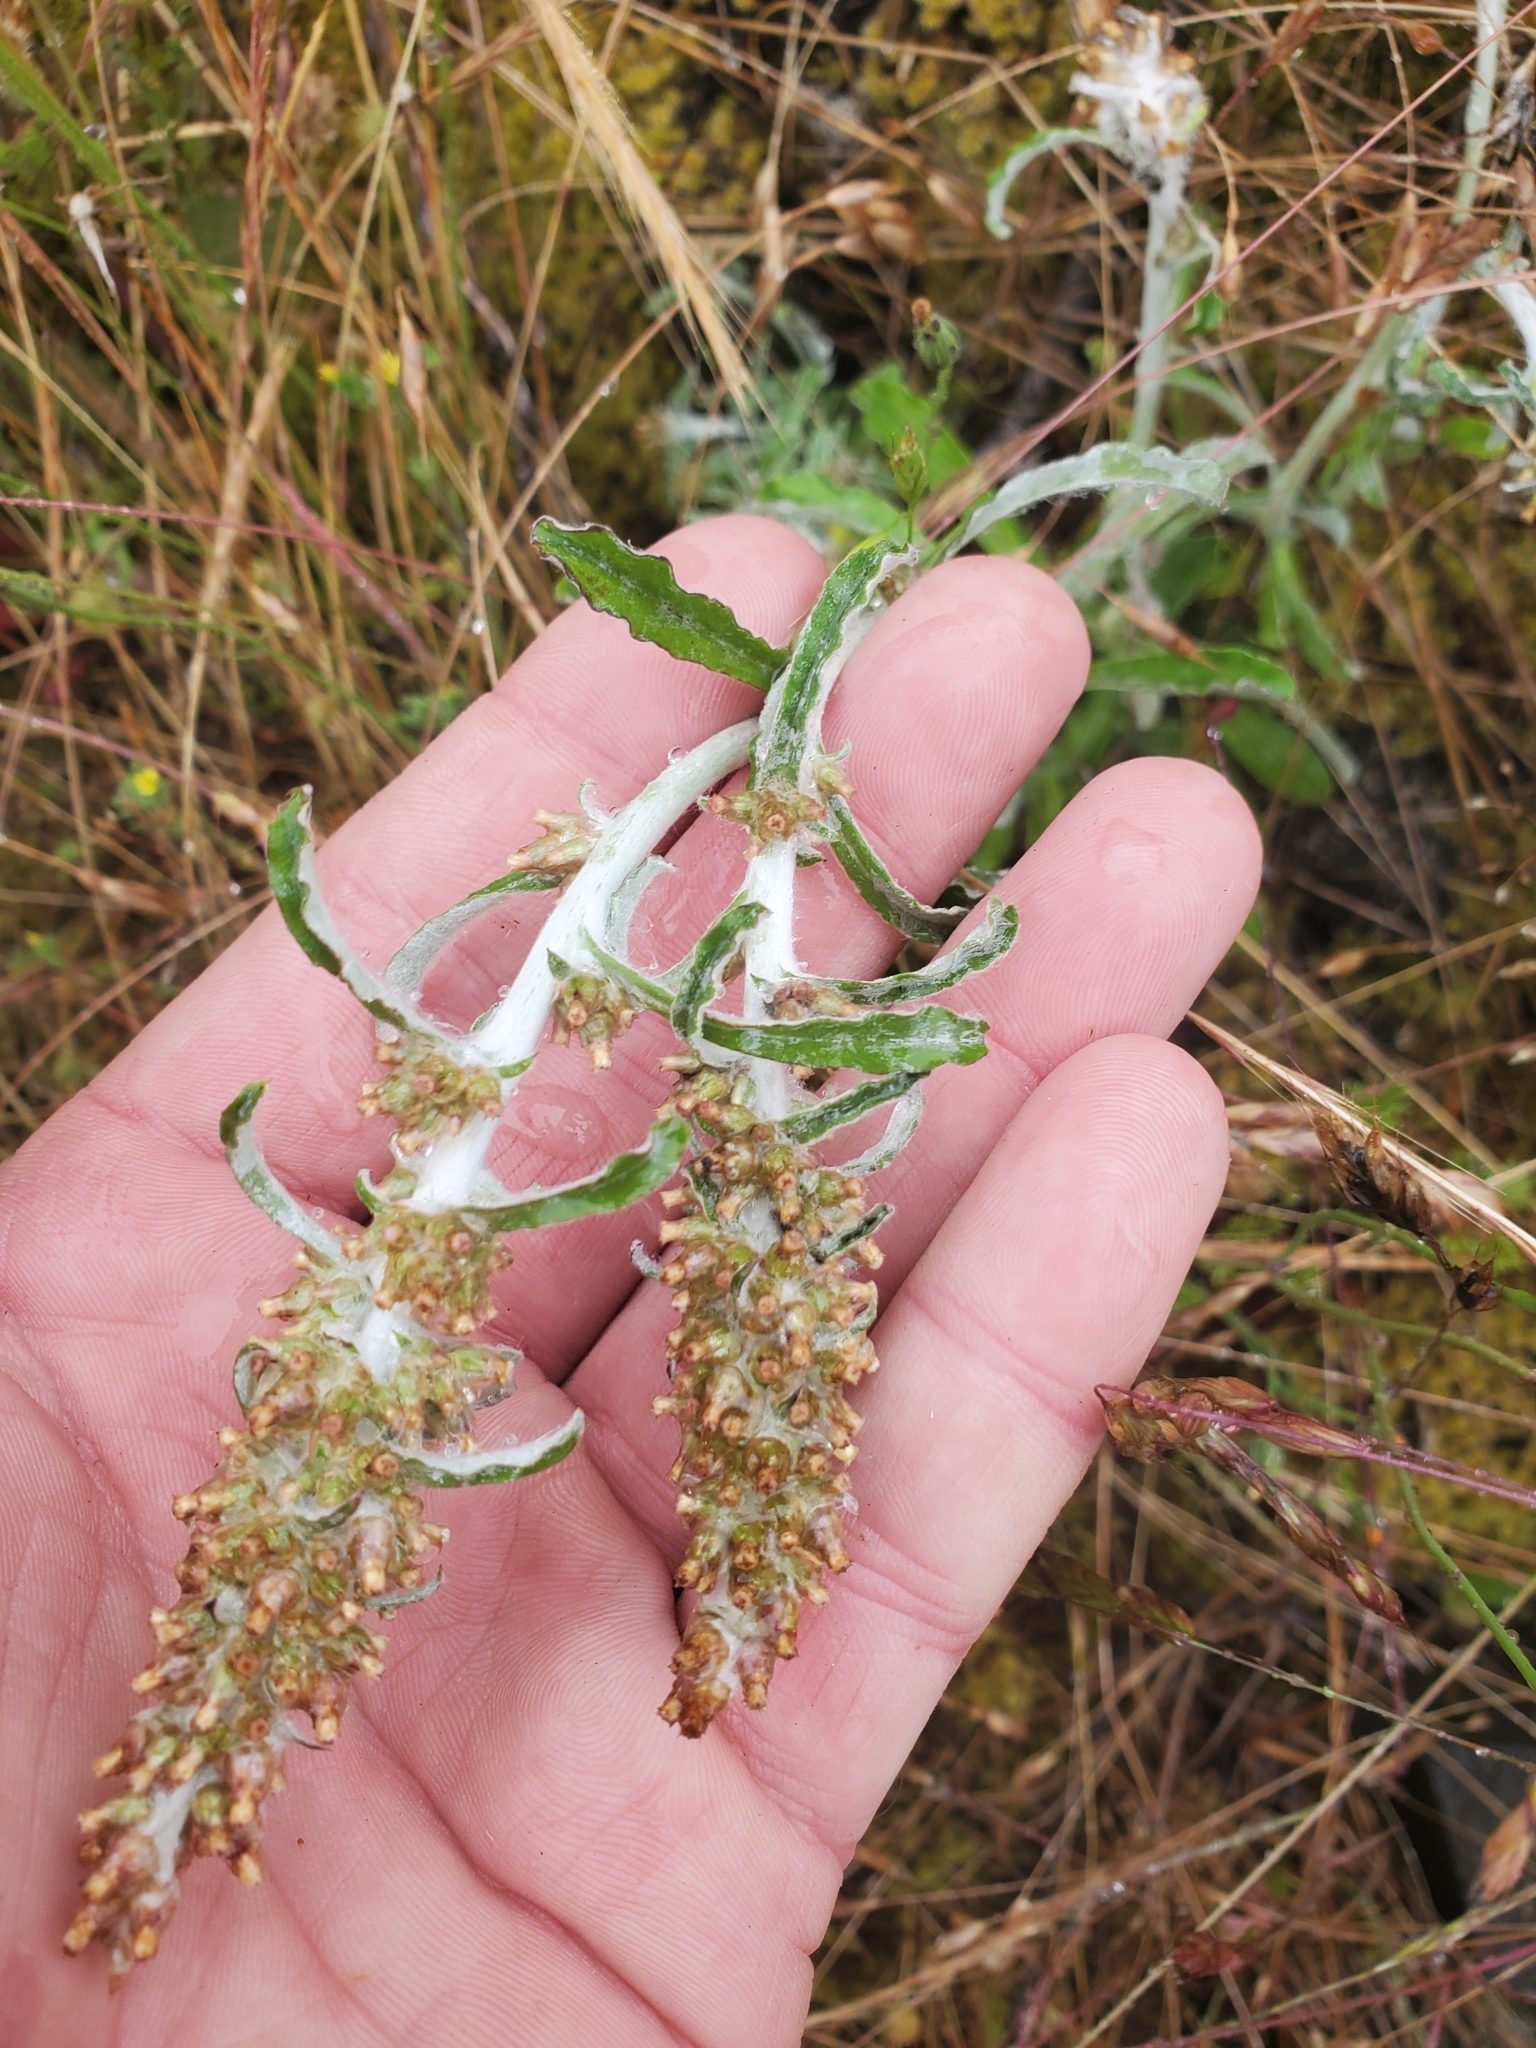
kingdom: Plantae
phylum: Tracheophyta
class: Magnoliopsida
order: Asterales
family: Asteraceae
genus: Gamochaeta
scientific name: Gamochaeta ustulata
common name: Pacific cudweed
